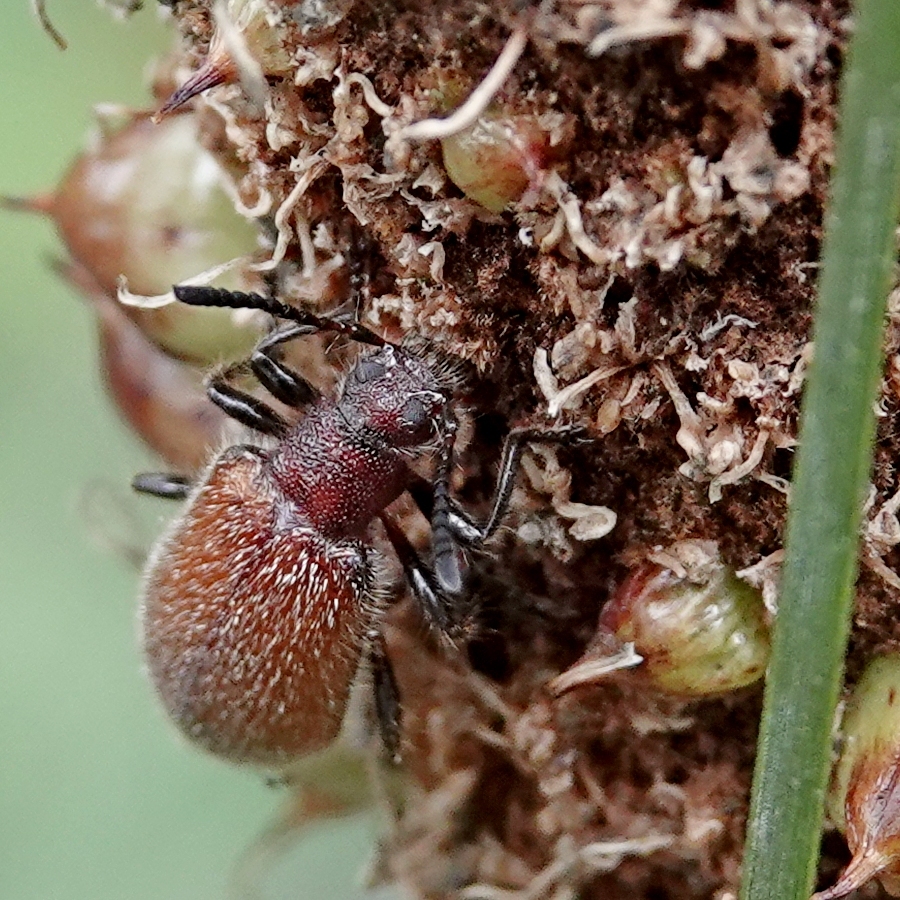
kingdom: Animalia
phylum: Arthropoda
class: Insecta
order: Coleoptera
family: Tenebrionidae
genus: Metriolagria
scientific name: Metriolagria affinis
